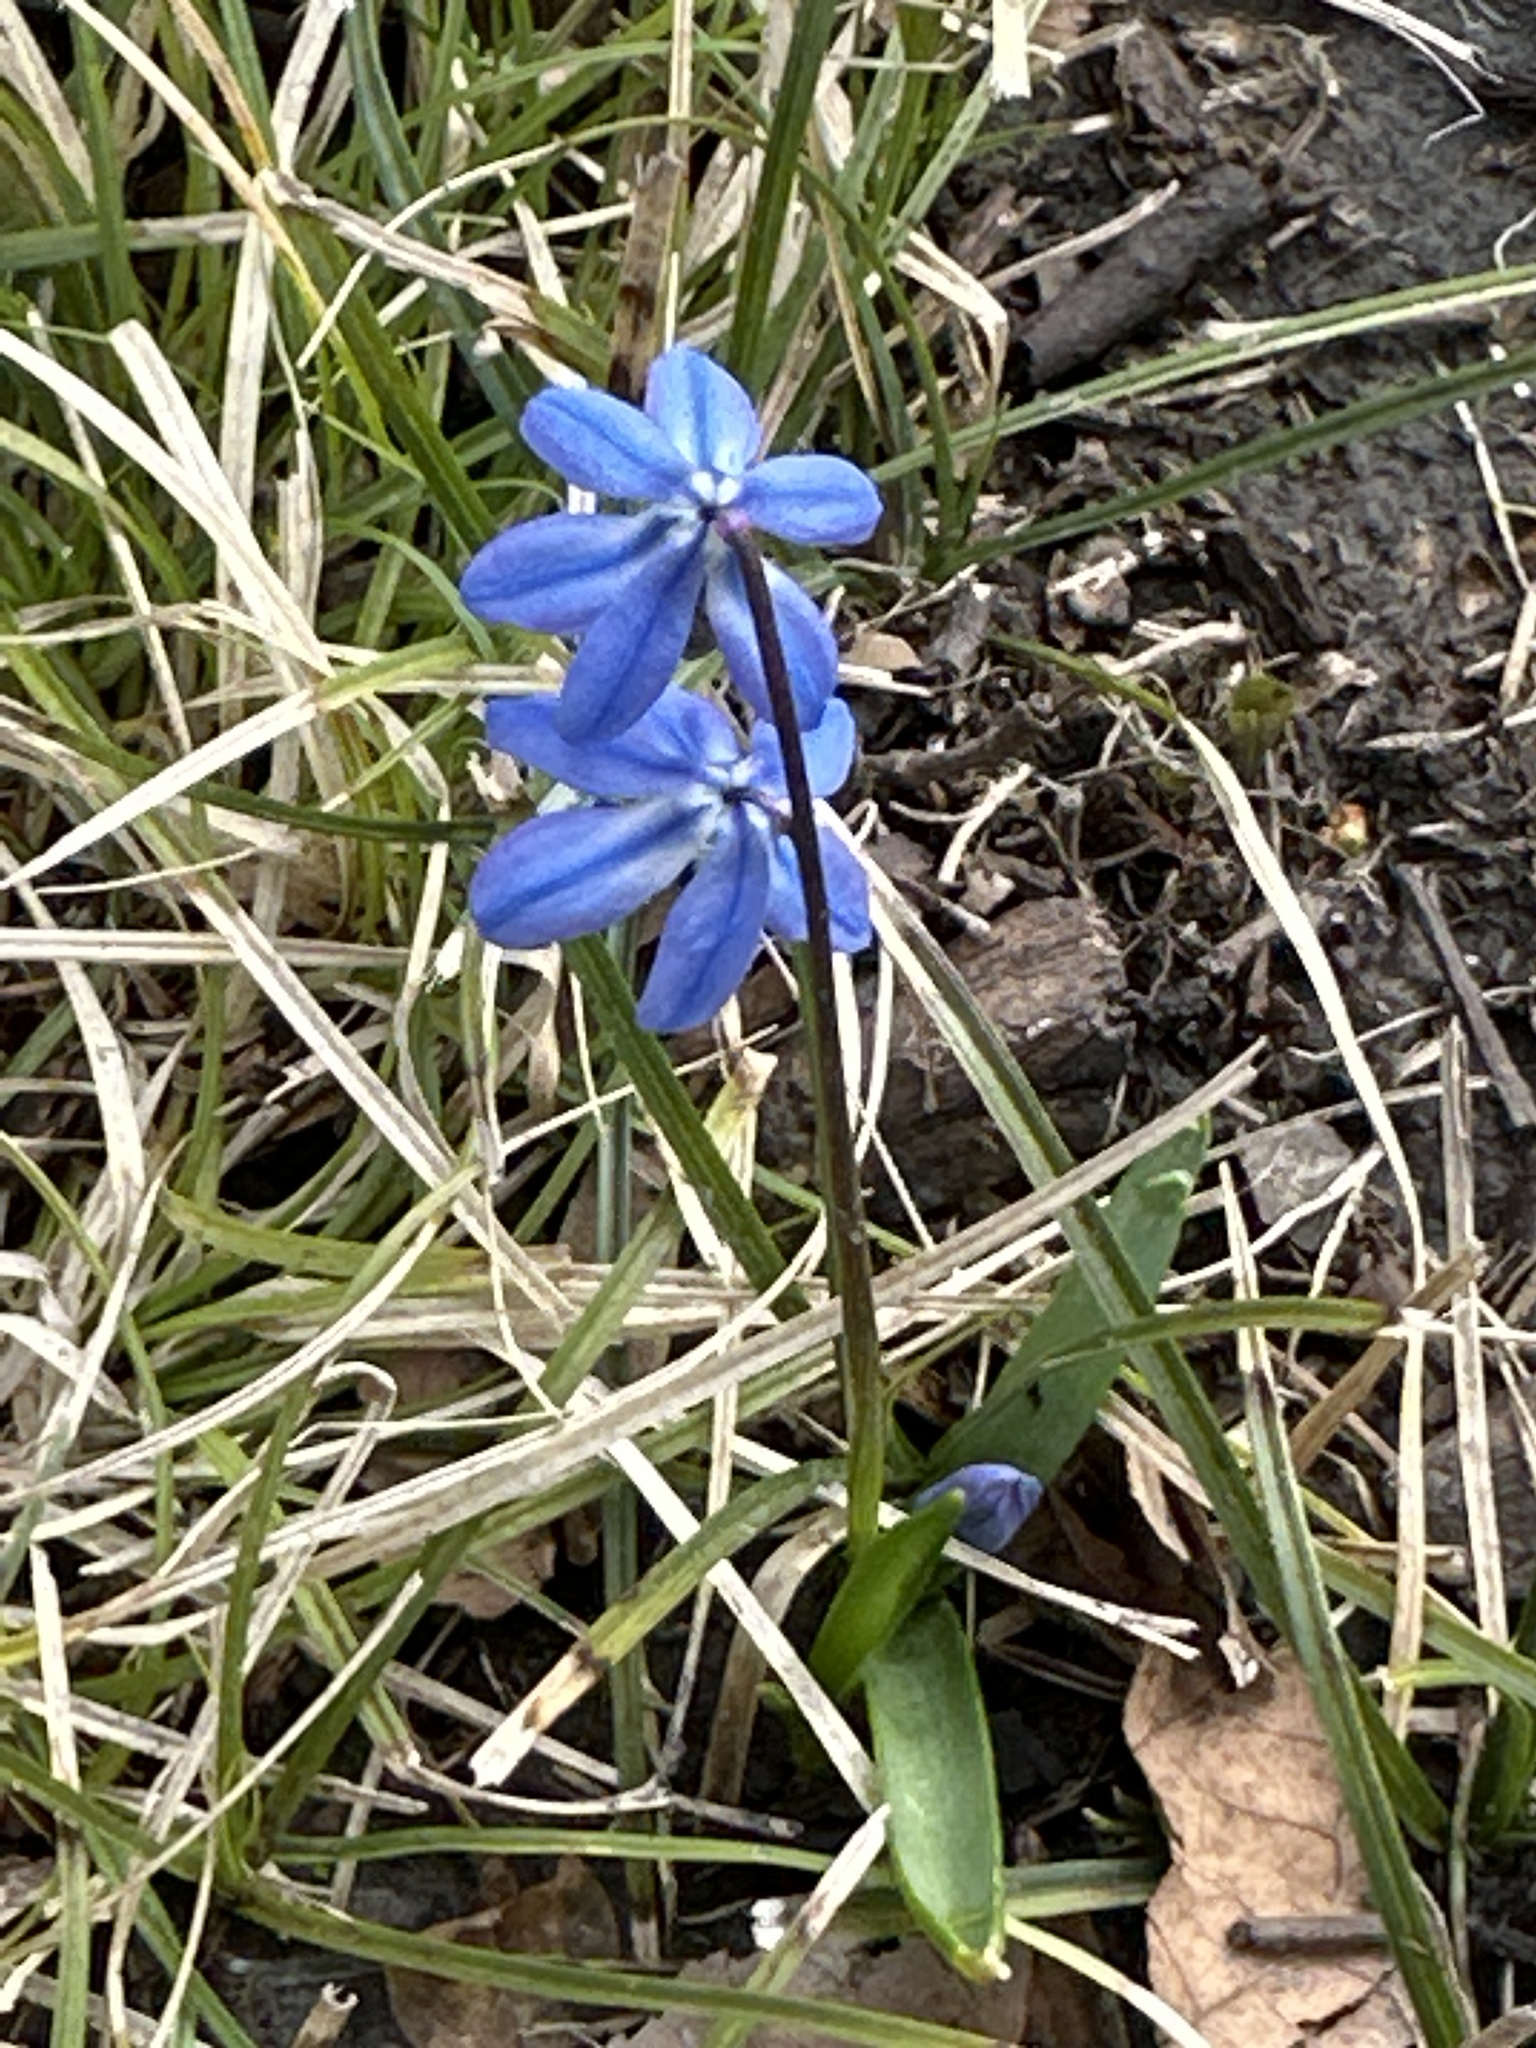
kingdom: Plantae
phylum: Tracheophyta
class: Liliopsida
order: Asparagales
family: Asparagaceae
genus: Scilla
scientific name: Scilla siberica
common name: Siberian squill
